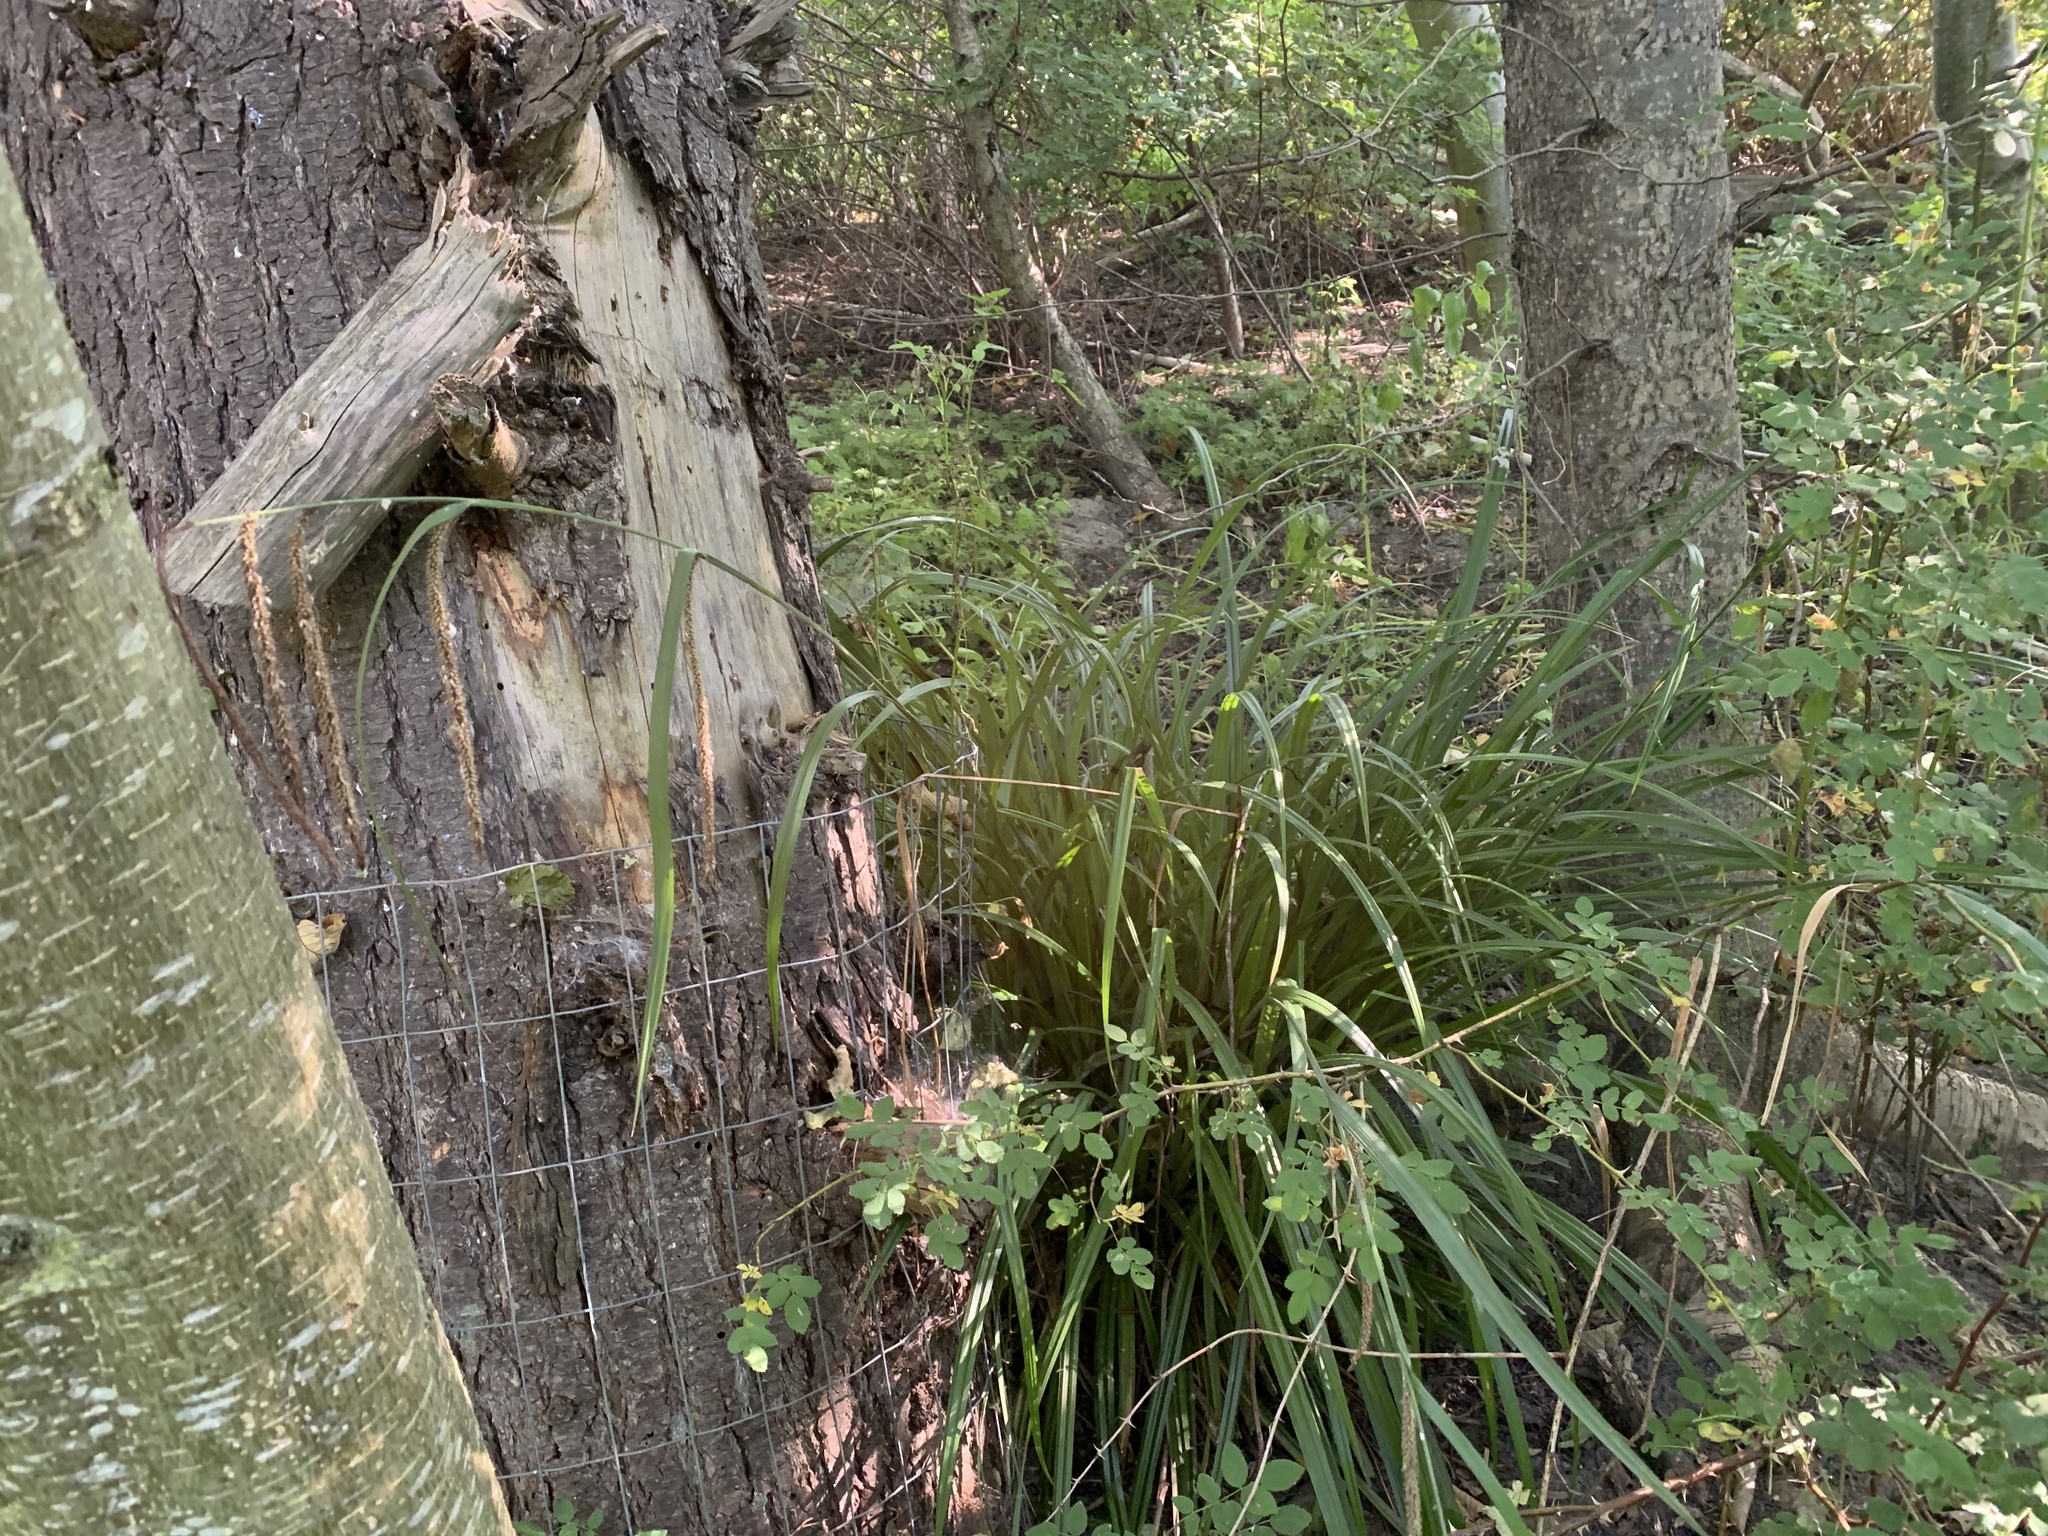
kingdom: Plantae
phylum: Tracheophyta
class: Liliopsida
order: Poales
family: Cyperaceae
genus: Carex
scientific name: Carex pendula
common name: Pendulous sedge
